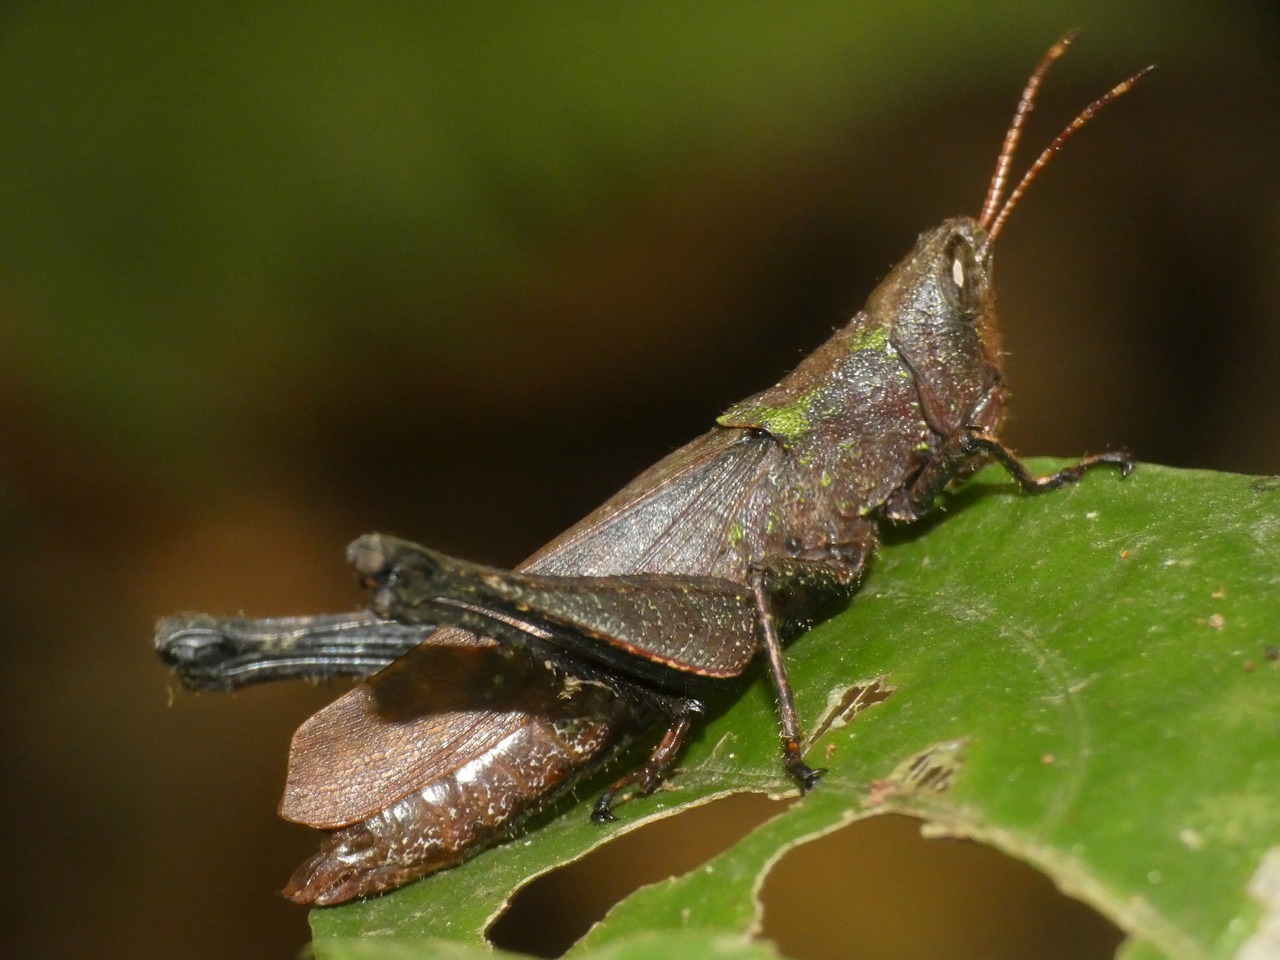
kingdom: Animalia
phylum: Arthropoda
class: Insecta
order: Orthoptera
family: Romaleidae
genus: Maculiparia
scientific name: Maculiparia rotundata
